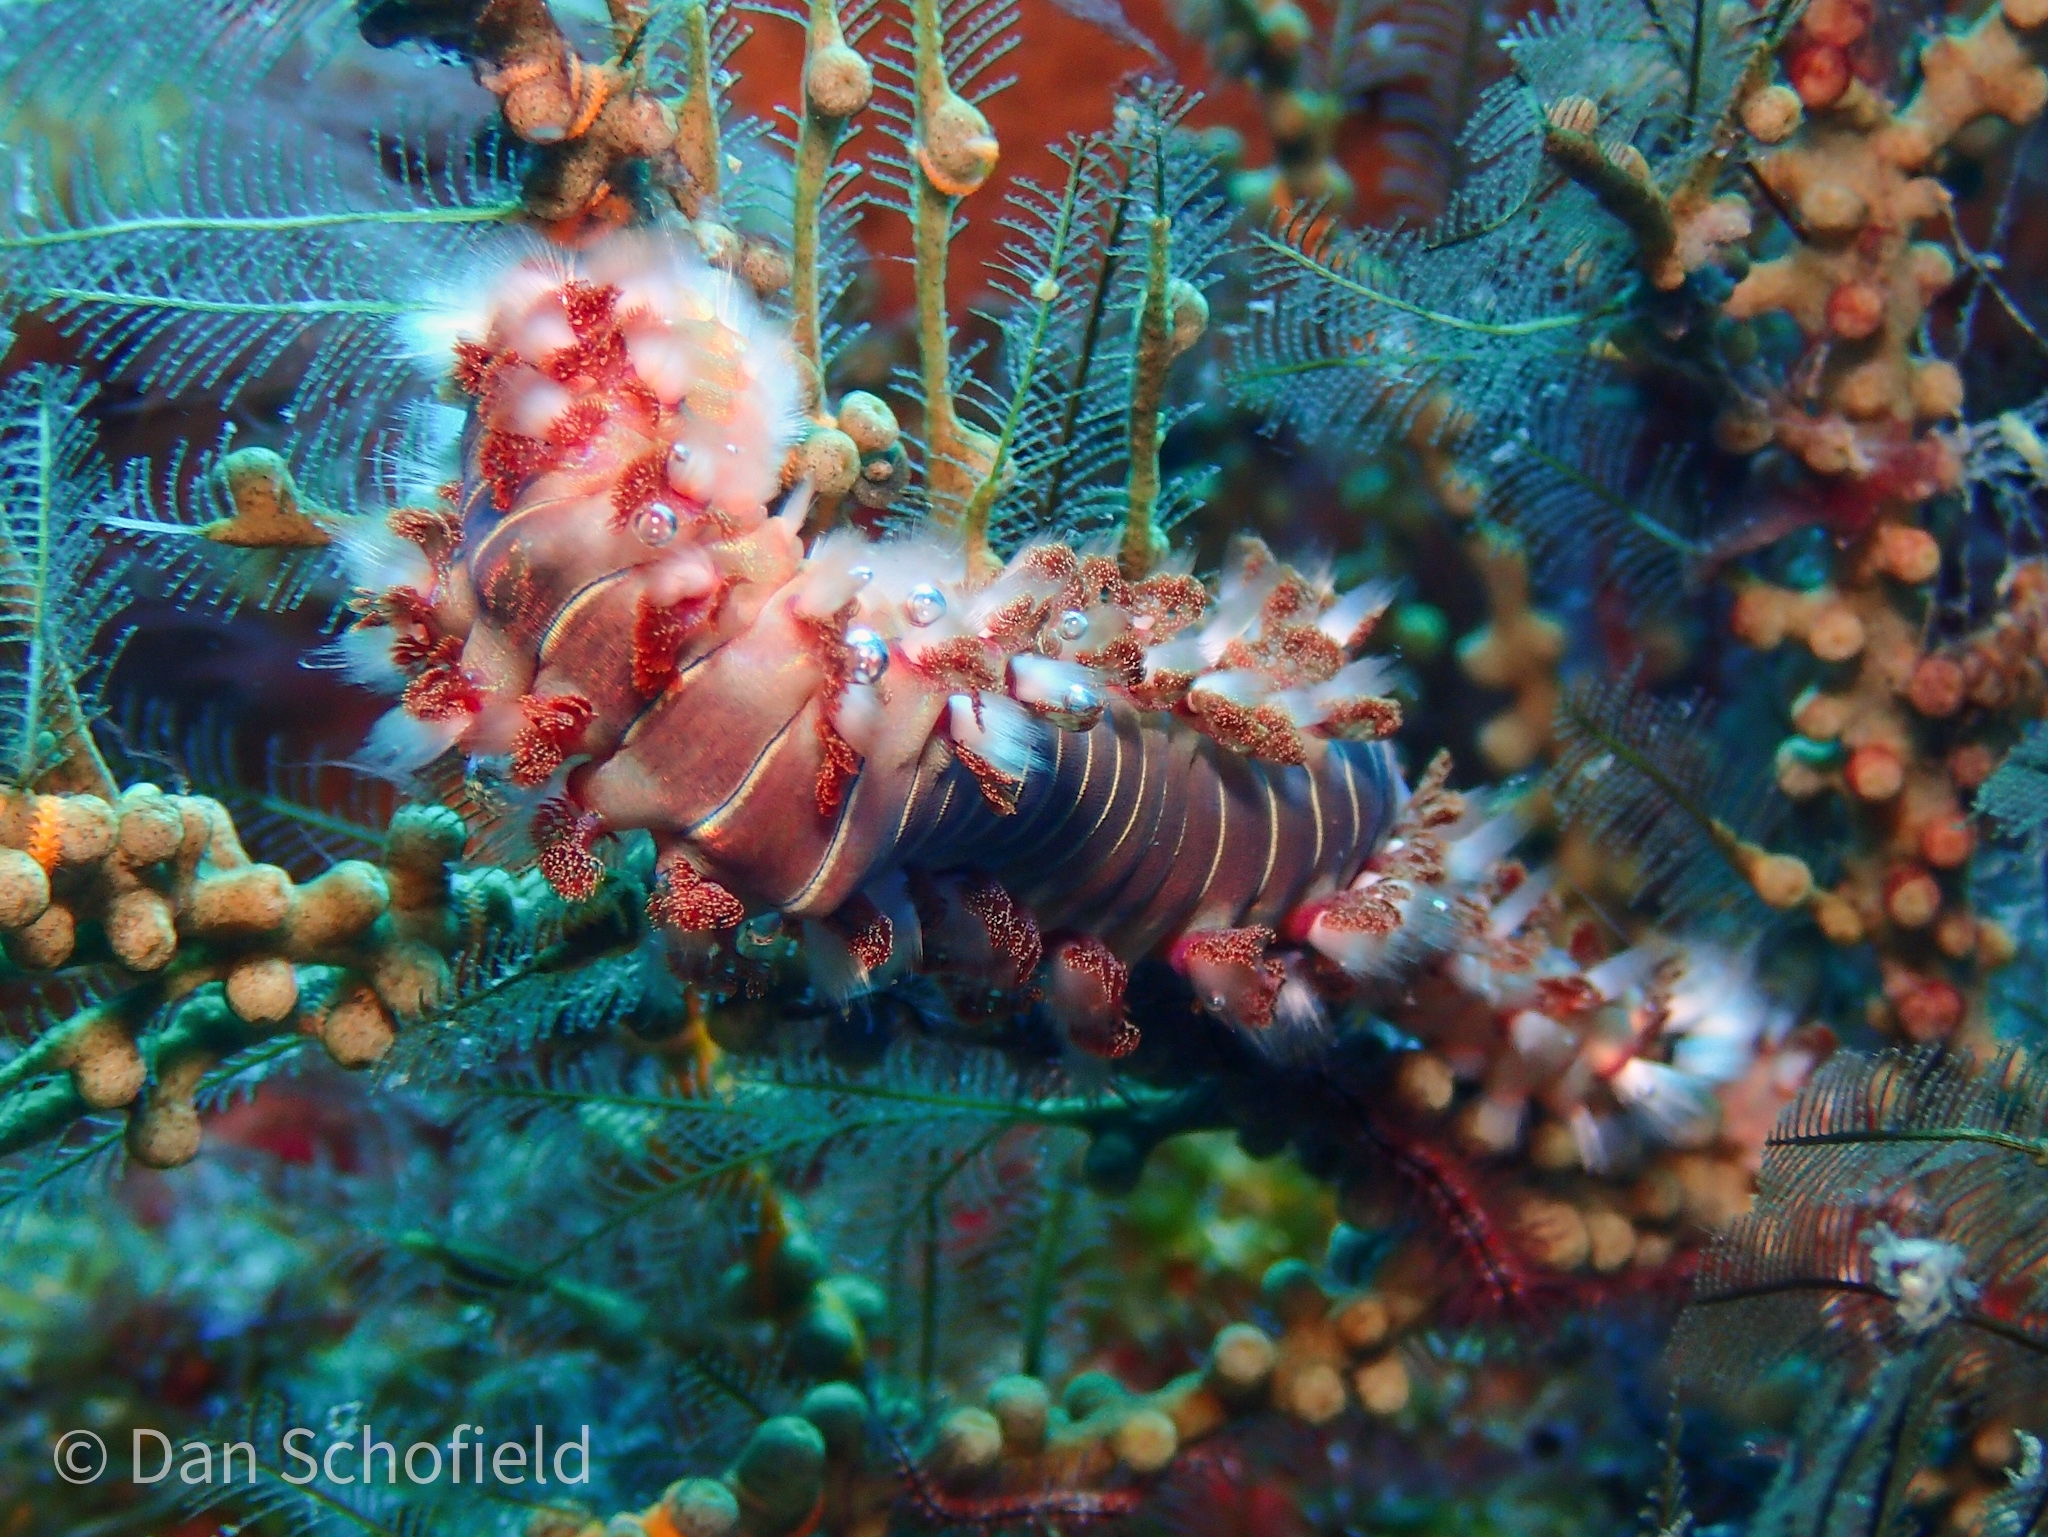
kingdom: Animalia
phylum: Annelida
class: Polychaeta
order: Amphinomida
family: Amphinomidae
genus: Hermodice
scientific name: Hermodice carunculata
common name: Bearded fireworm
